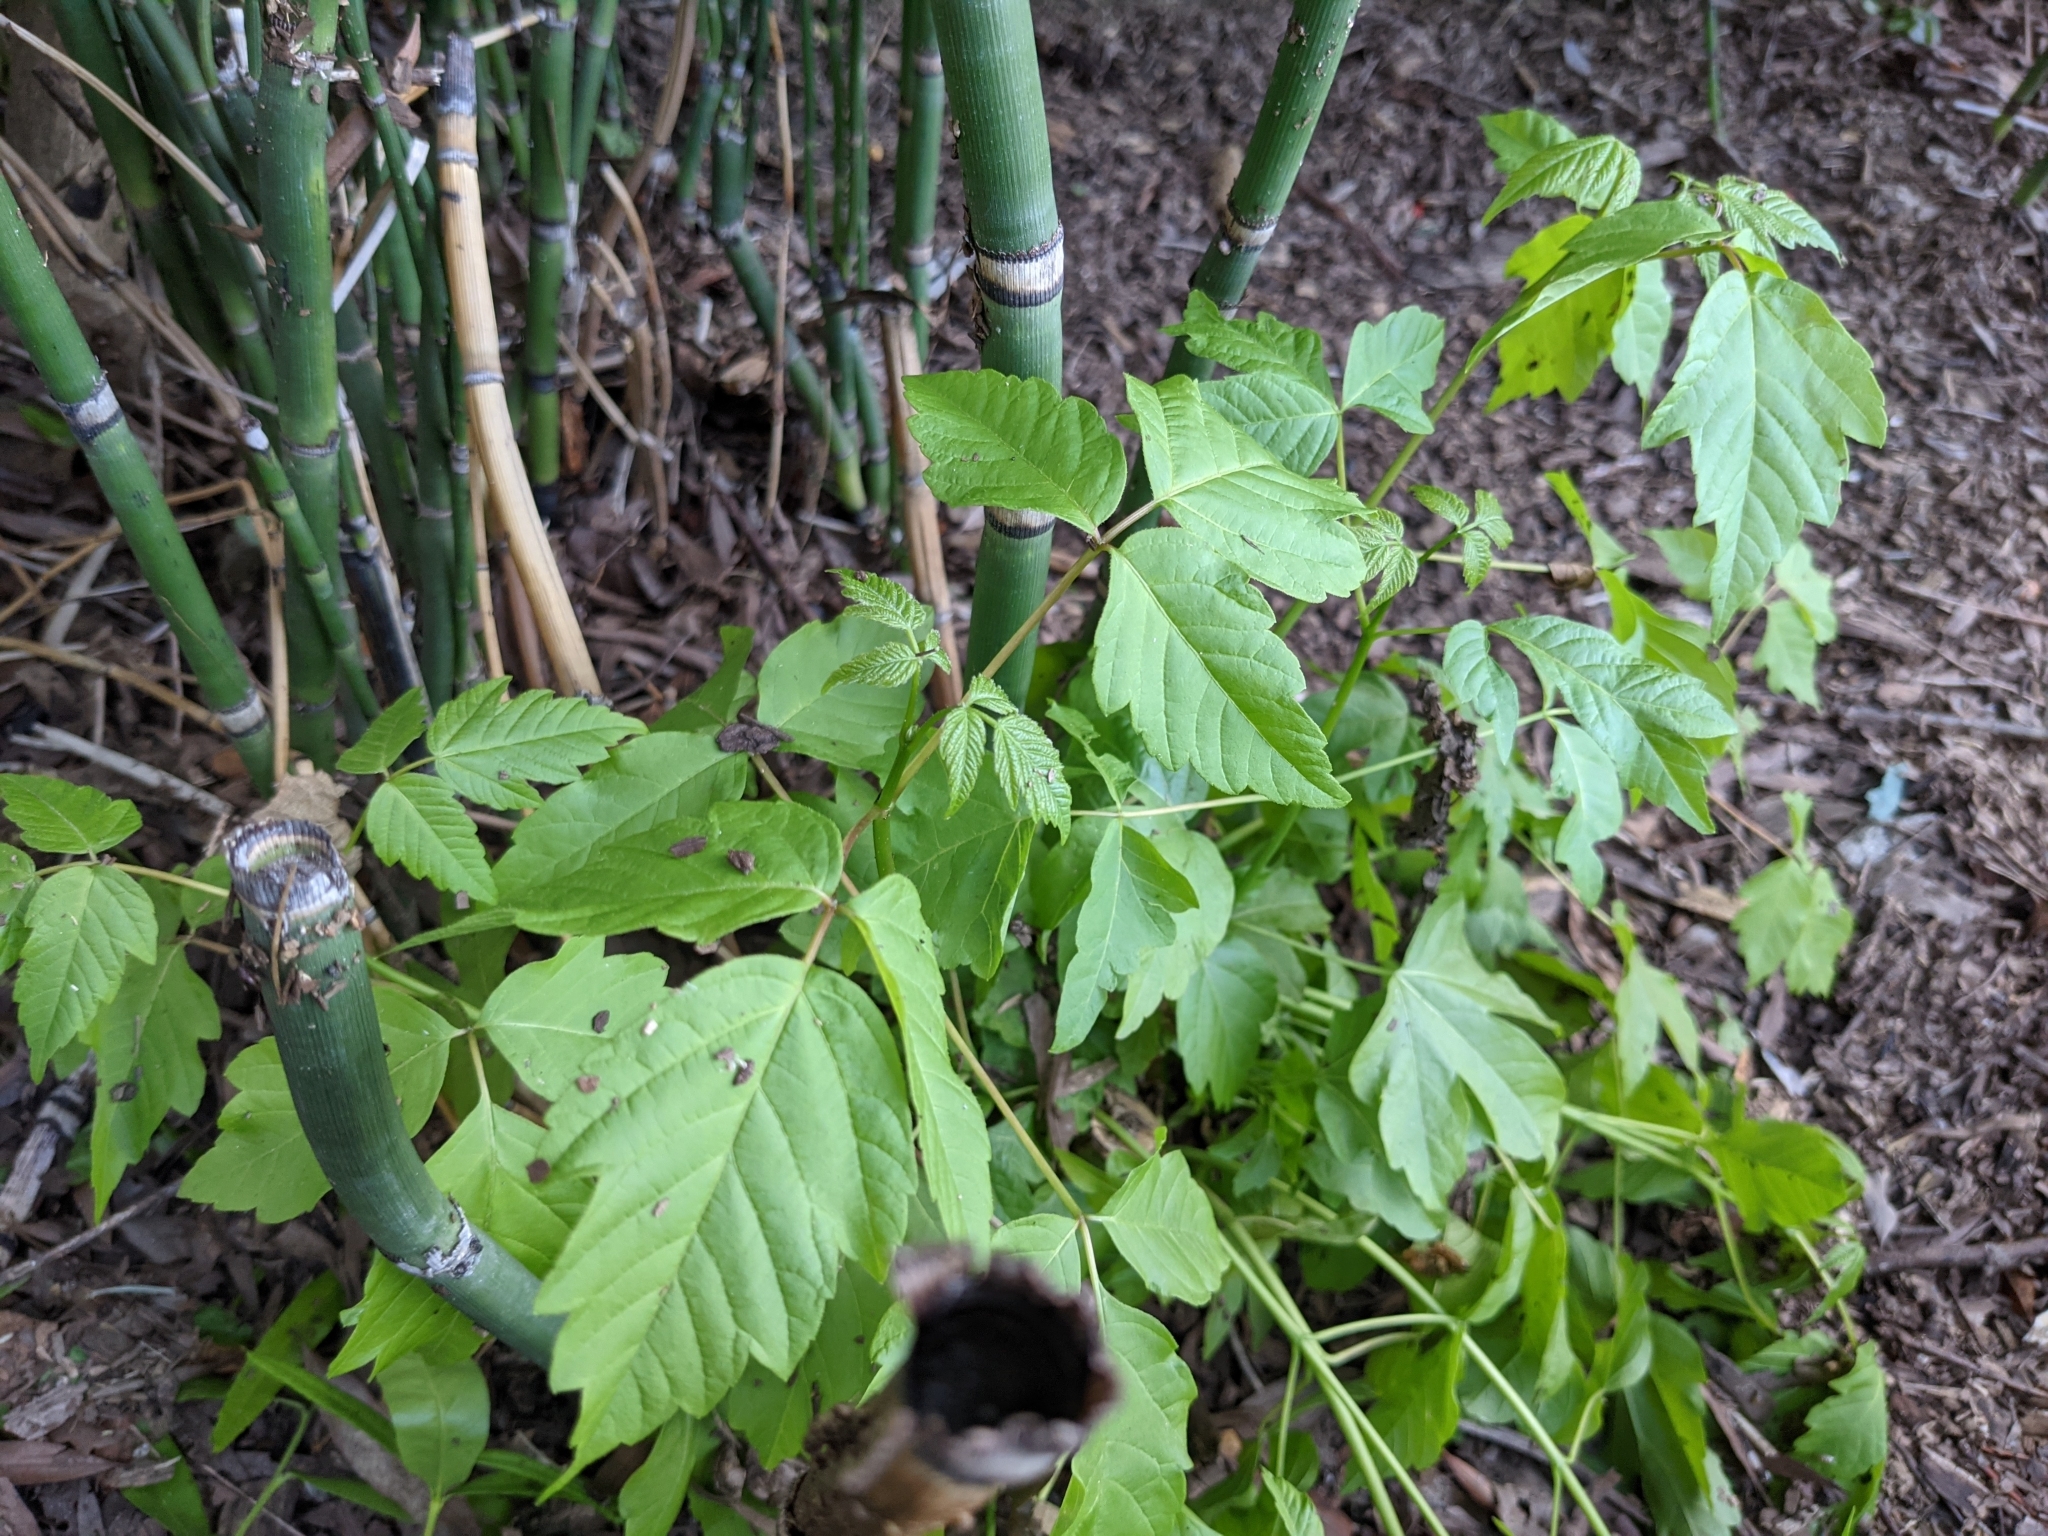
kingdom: Plantae
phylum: Tracheophyta
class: Magnoliopsida
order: Sapindales
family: Sapindaceae
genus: Acer
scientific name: Acer negundo
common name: Ashleaf maple
